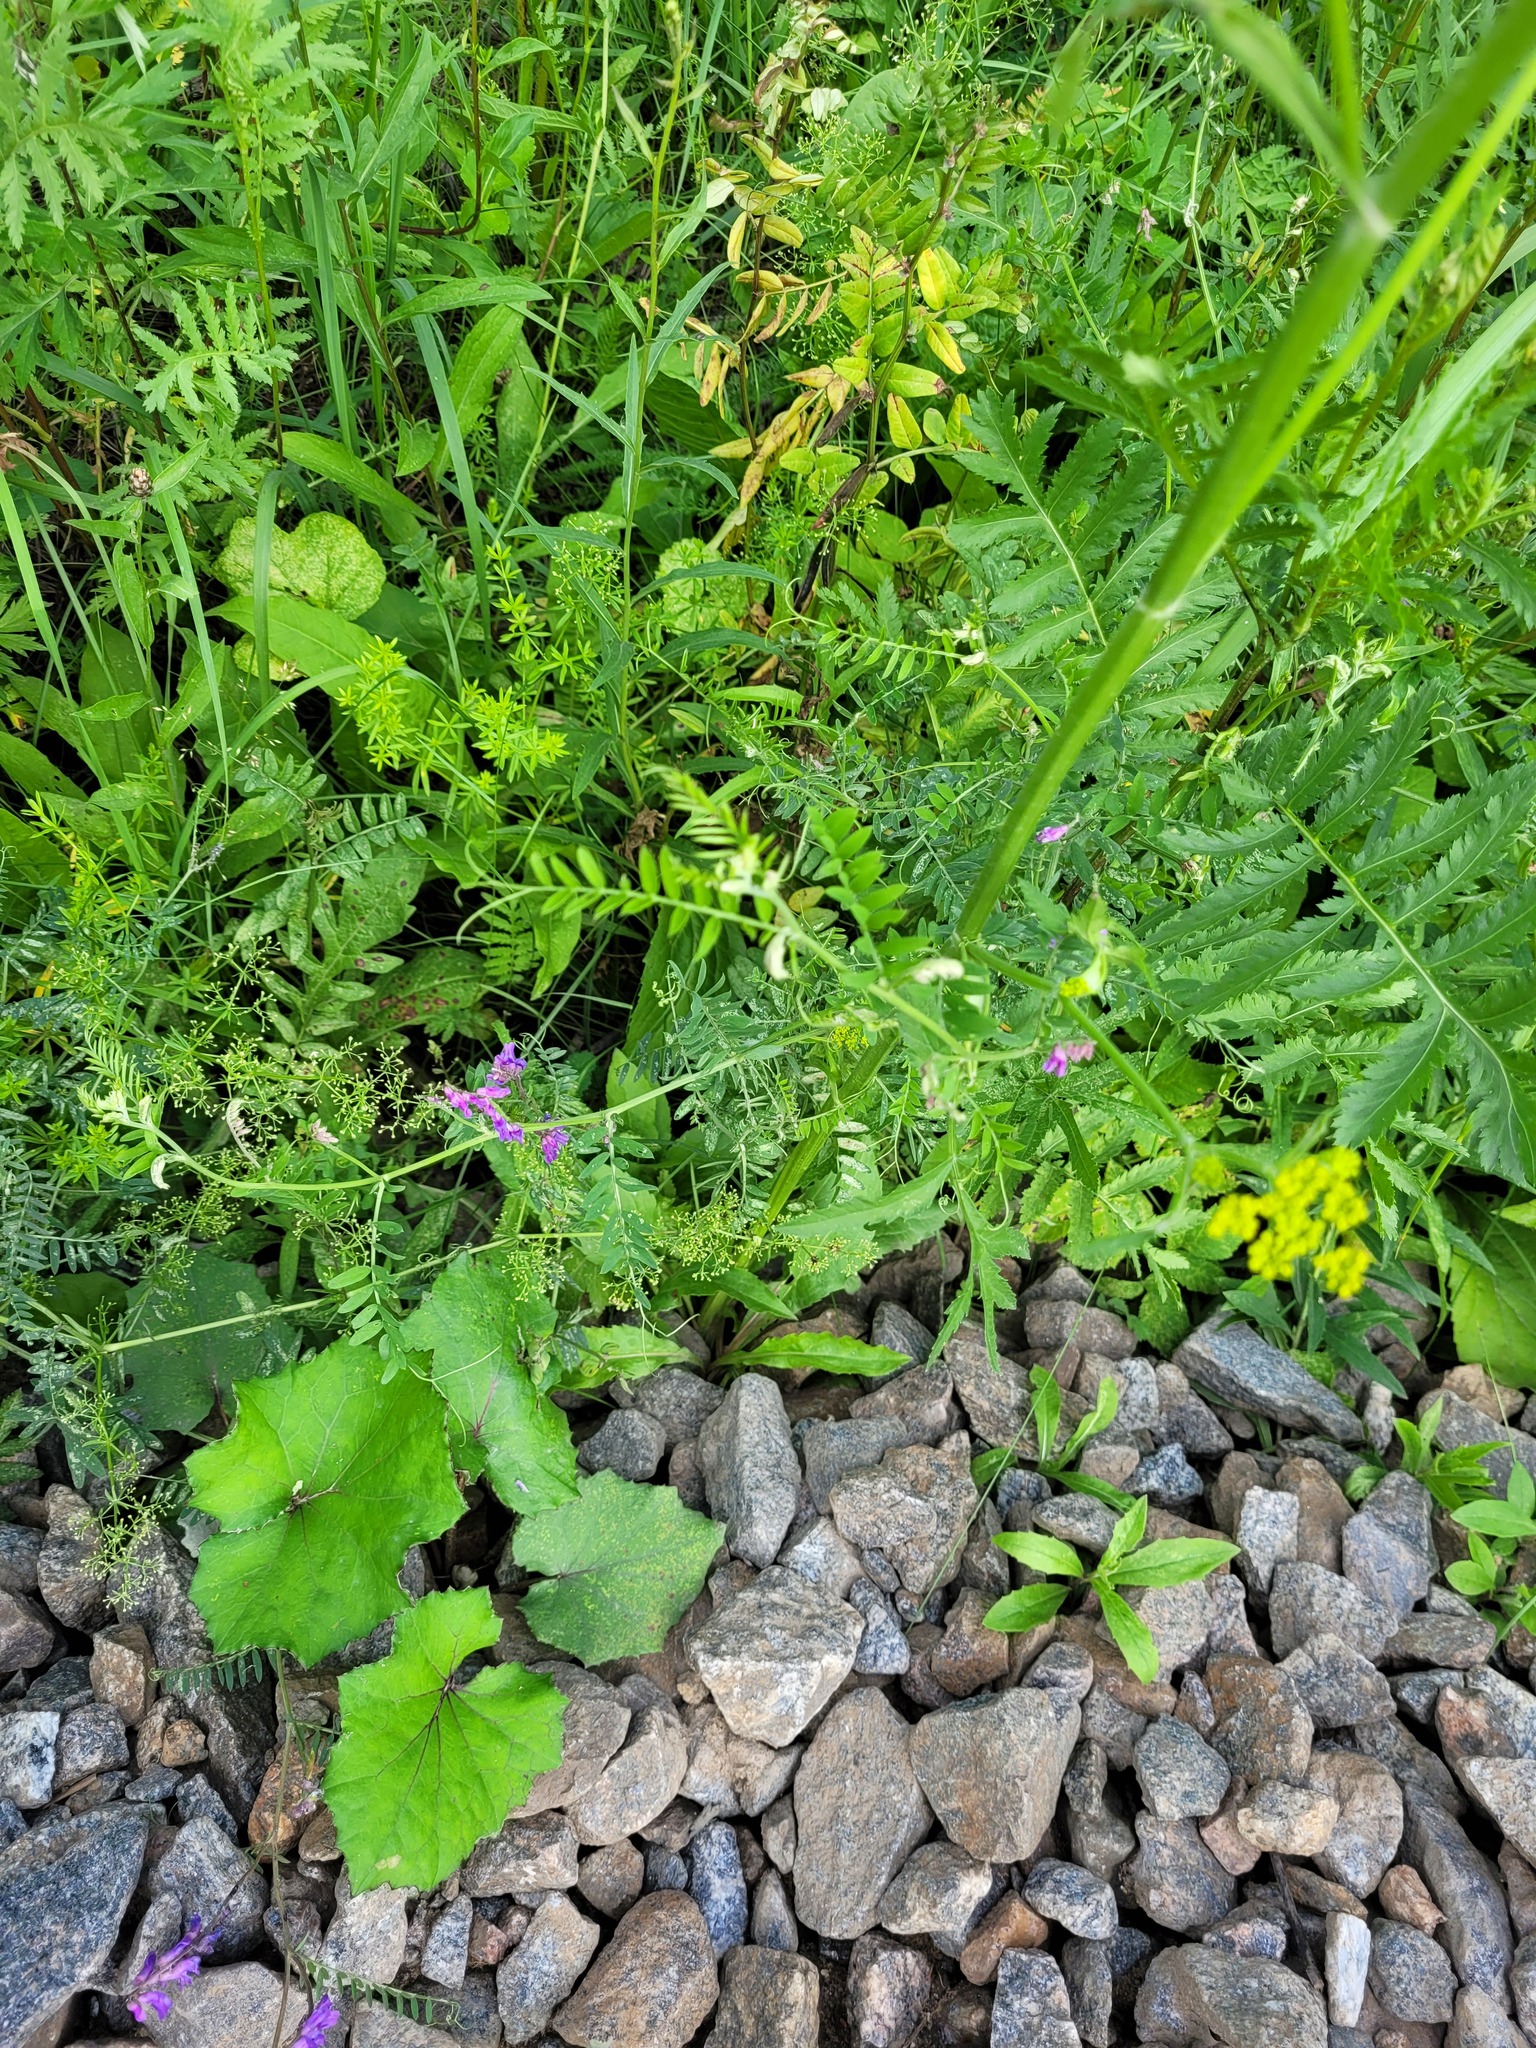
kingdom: Plantae
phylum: Tracheophyta
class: Magnoliopsida
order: Fabales
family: Fabaceae
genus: Vicia
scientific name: Vicia cracca
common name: Bird vetch
